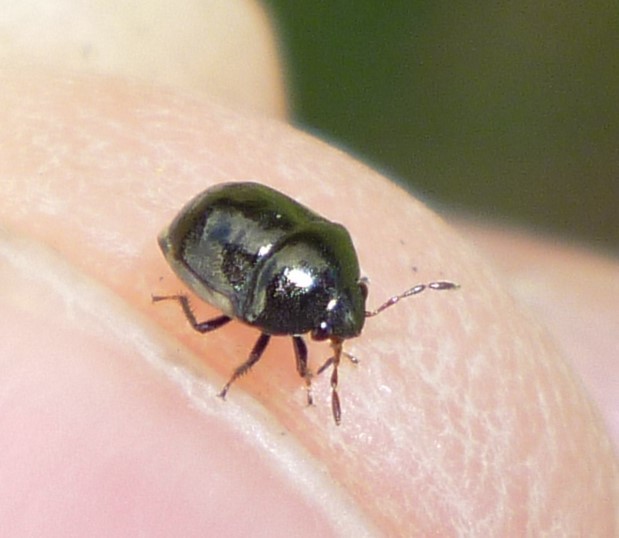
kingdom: Animalia
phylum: Arthropoda
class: Insecta
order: Hemiptera
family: Thyreocoridae
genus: Corimelaena
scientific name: Corimelaena lateralis
